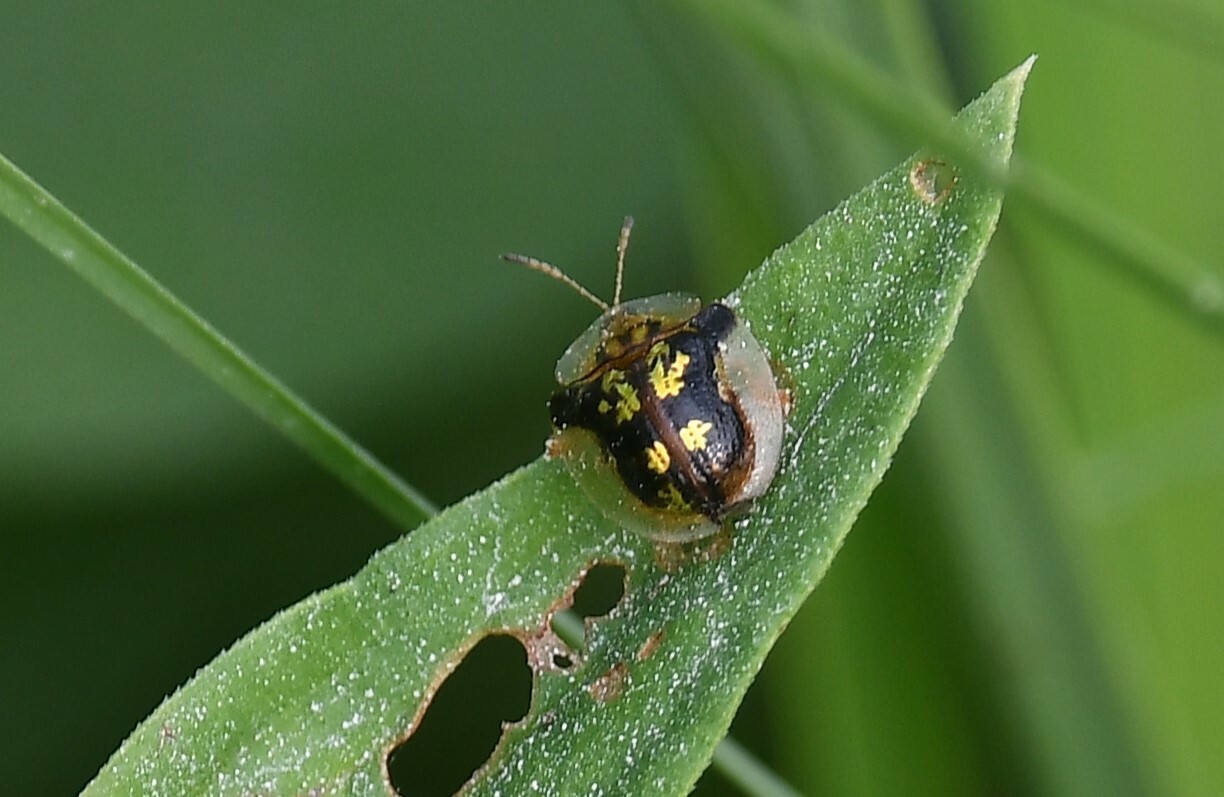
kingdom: Animalia
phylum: Arthropoda
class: Insecta
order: Coleoptera
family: Chrysomelidae
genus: Deloyala
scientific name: Deloyala guttata
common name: Mottled tortoise beetle
